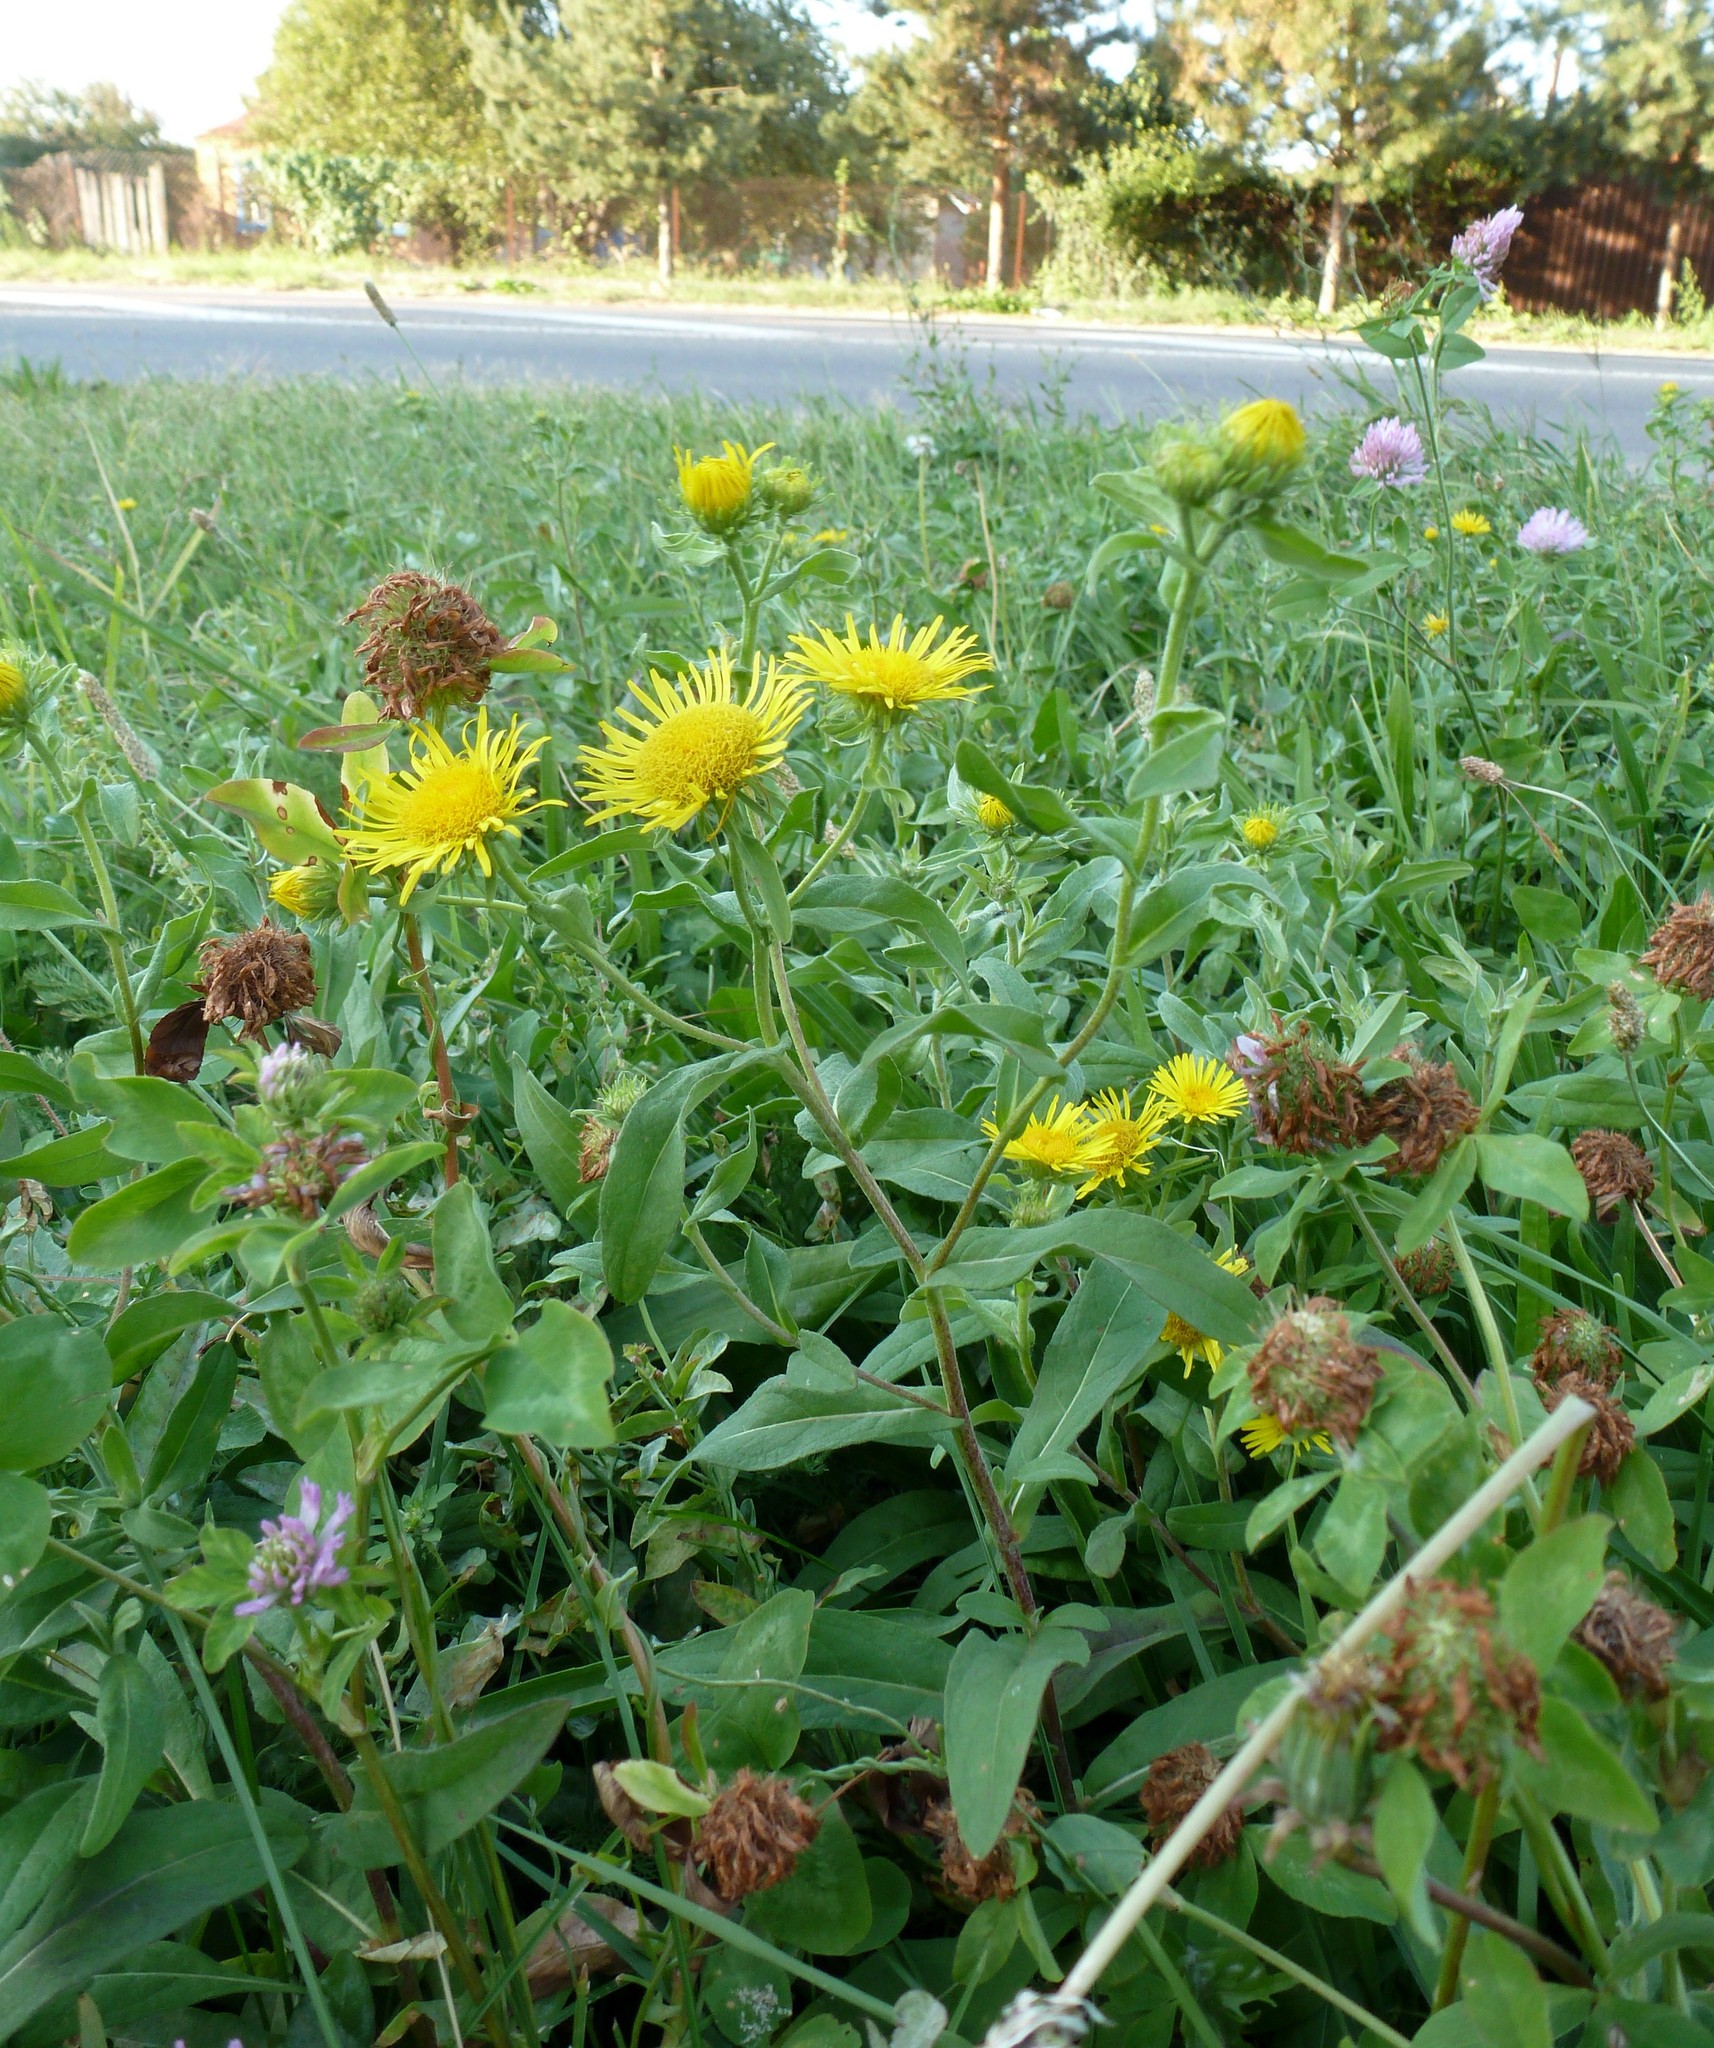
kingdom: Plantae
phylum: Tracheophyta
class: Magnoliopsida
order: Asterales
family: Asteraceae
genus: Pentanema
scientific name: Pentanema britannicum
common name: British elecampane
